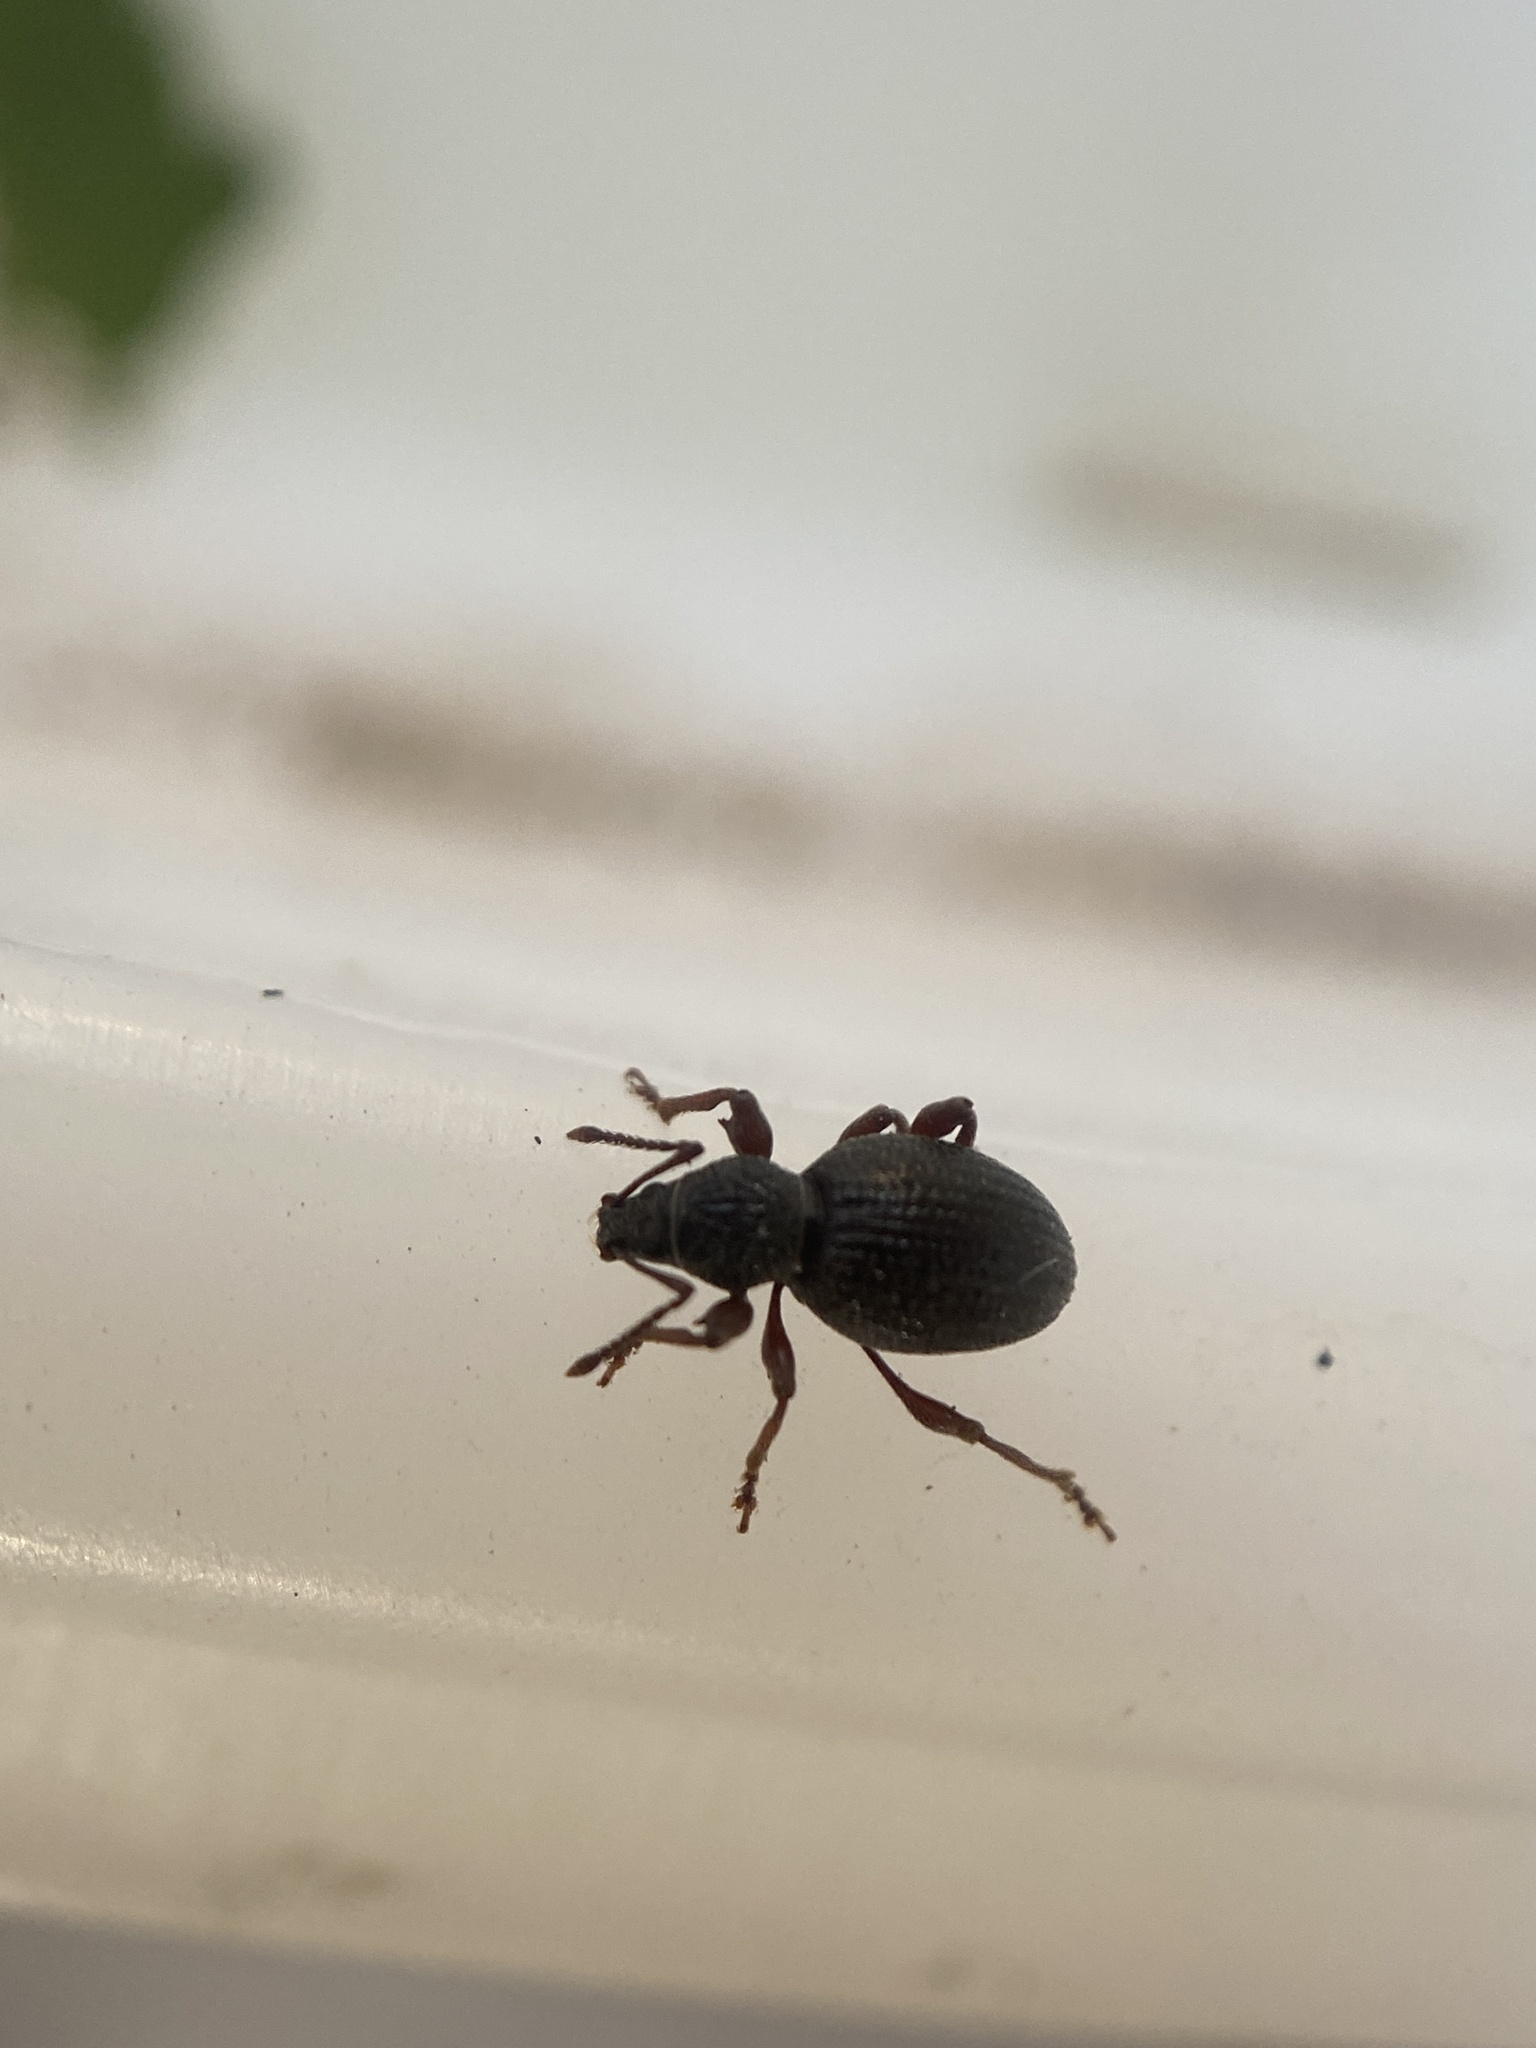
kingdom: Animalia
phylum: Arthropoda
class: Insecta
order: Coleoptera
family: Curculionidae
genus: Otiorhynchus
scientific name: Otiorhynchus ovatus
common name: Strawberry root weevil
